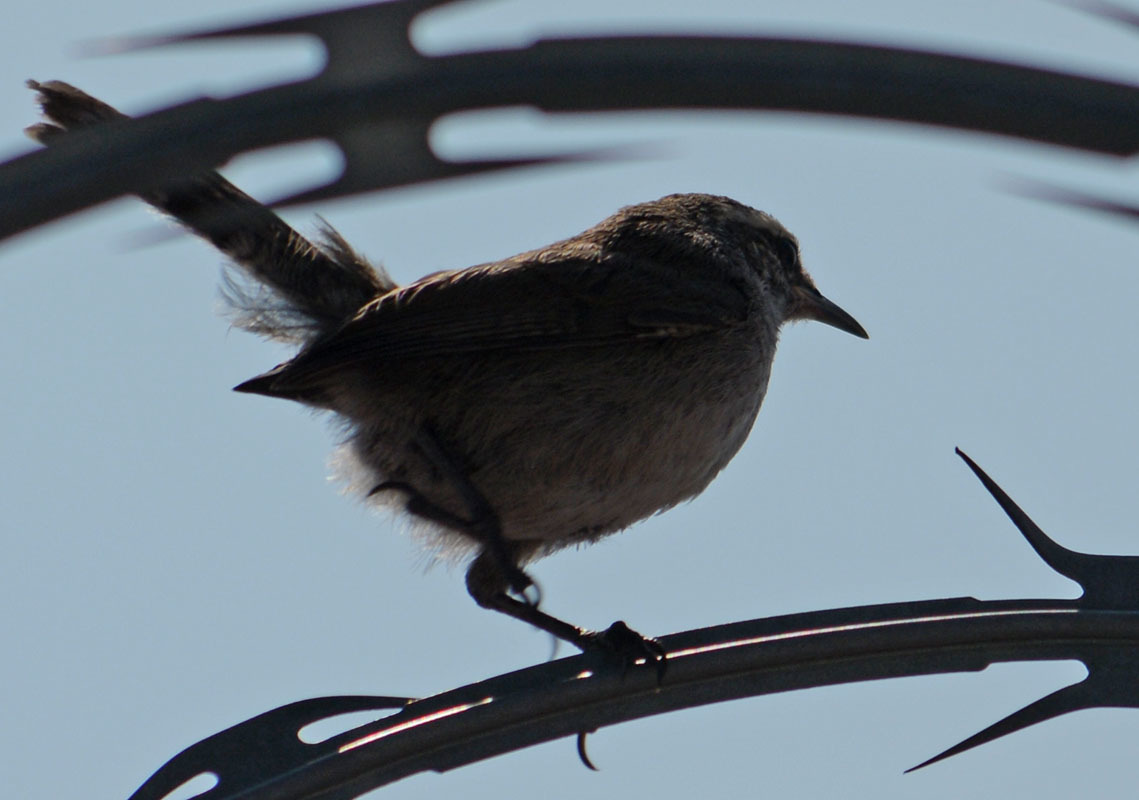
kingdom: Animalia
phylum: Chordata
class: Aves
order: Passeriformes
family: Troglodytidae
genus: Thryomanes
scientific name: Thryomanes bewickii
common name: Bewick's wren
